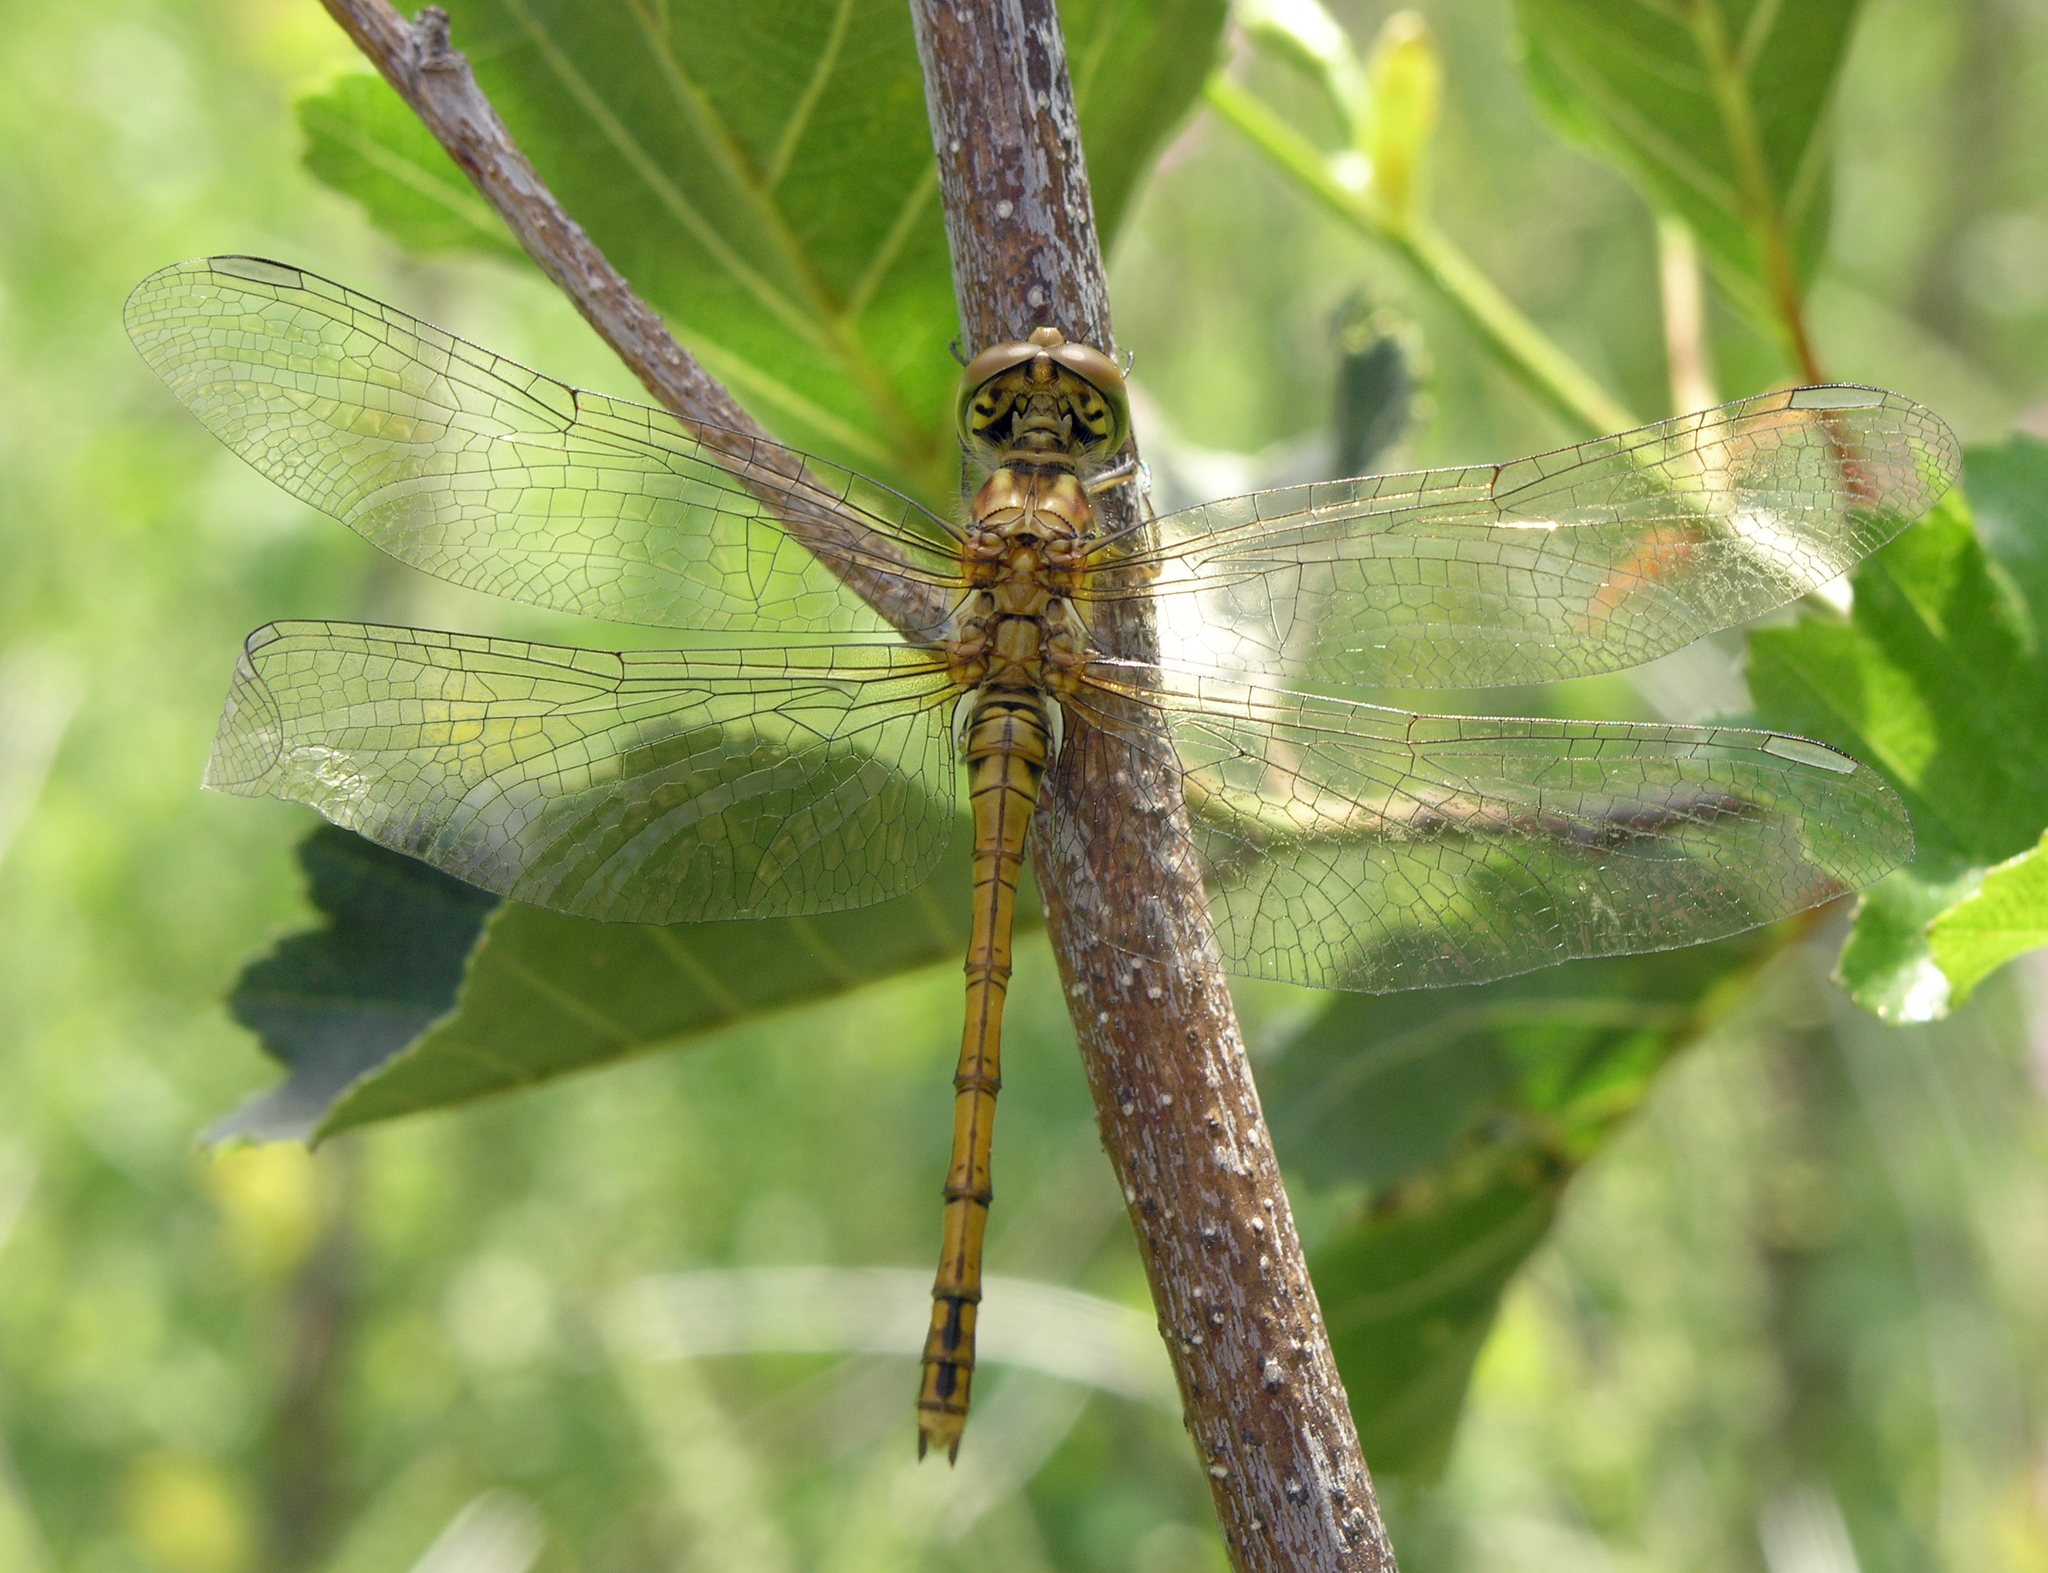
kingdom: Animalia
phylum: Arthropoda
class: Insecta
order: Odonata
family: Libellulidae
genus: Sympetrum
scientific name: Sympetrum striolatum
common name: Common darter
